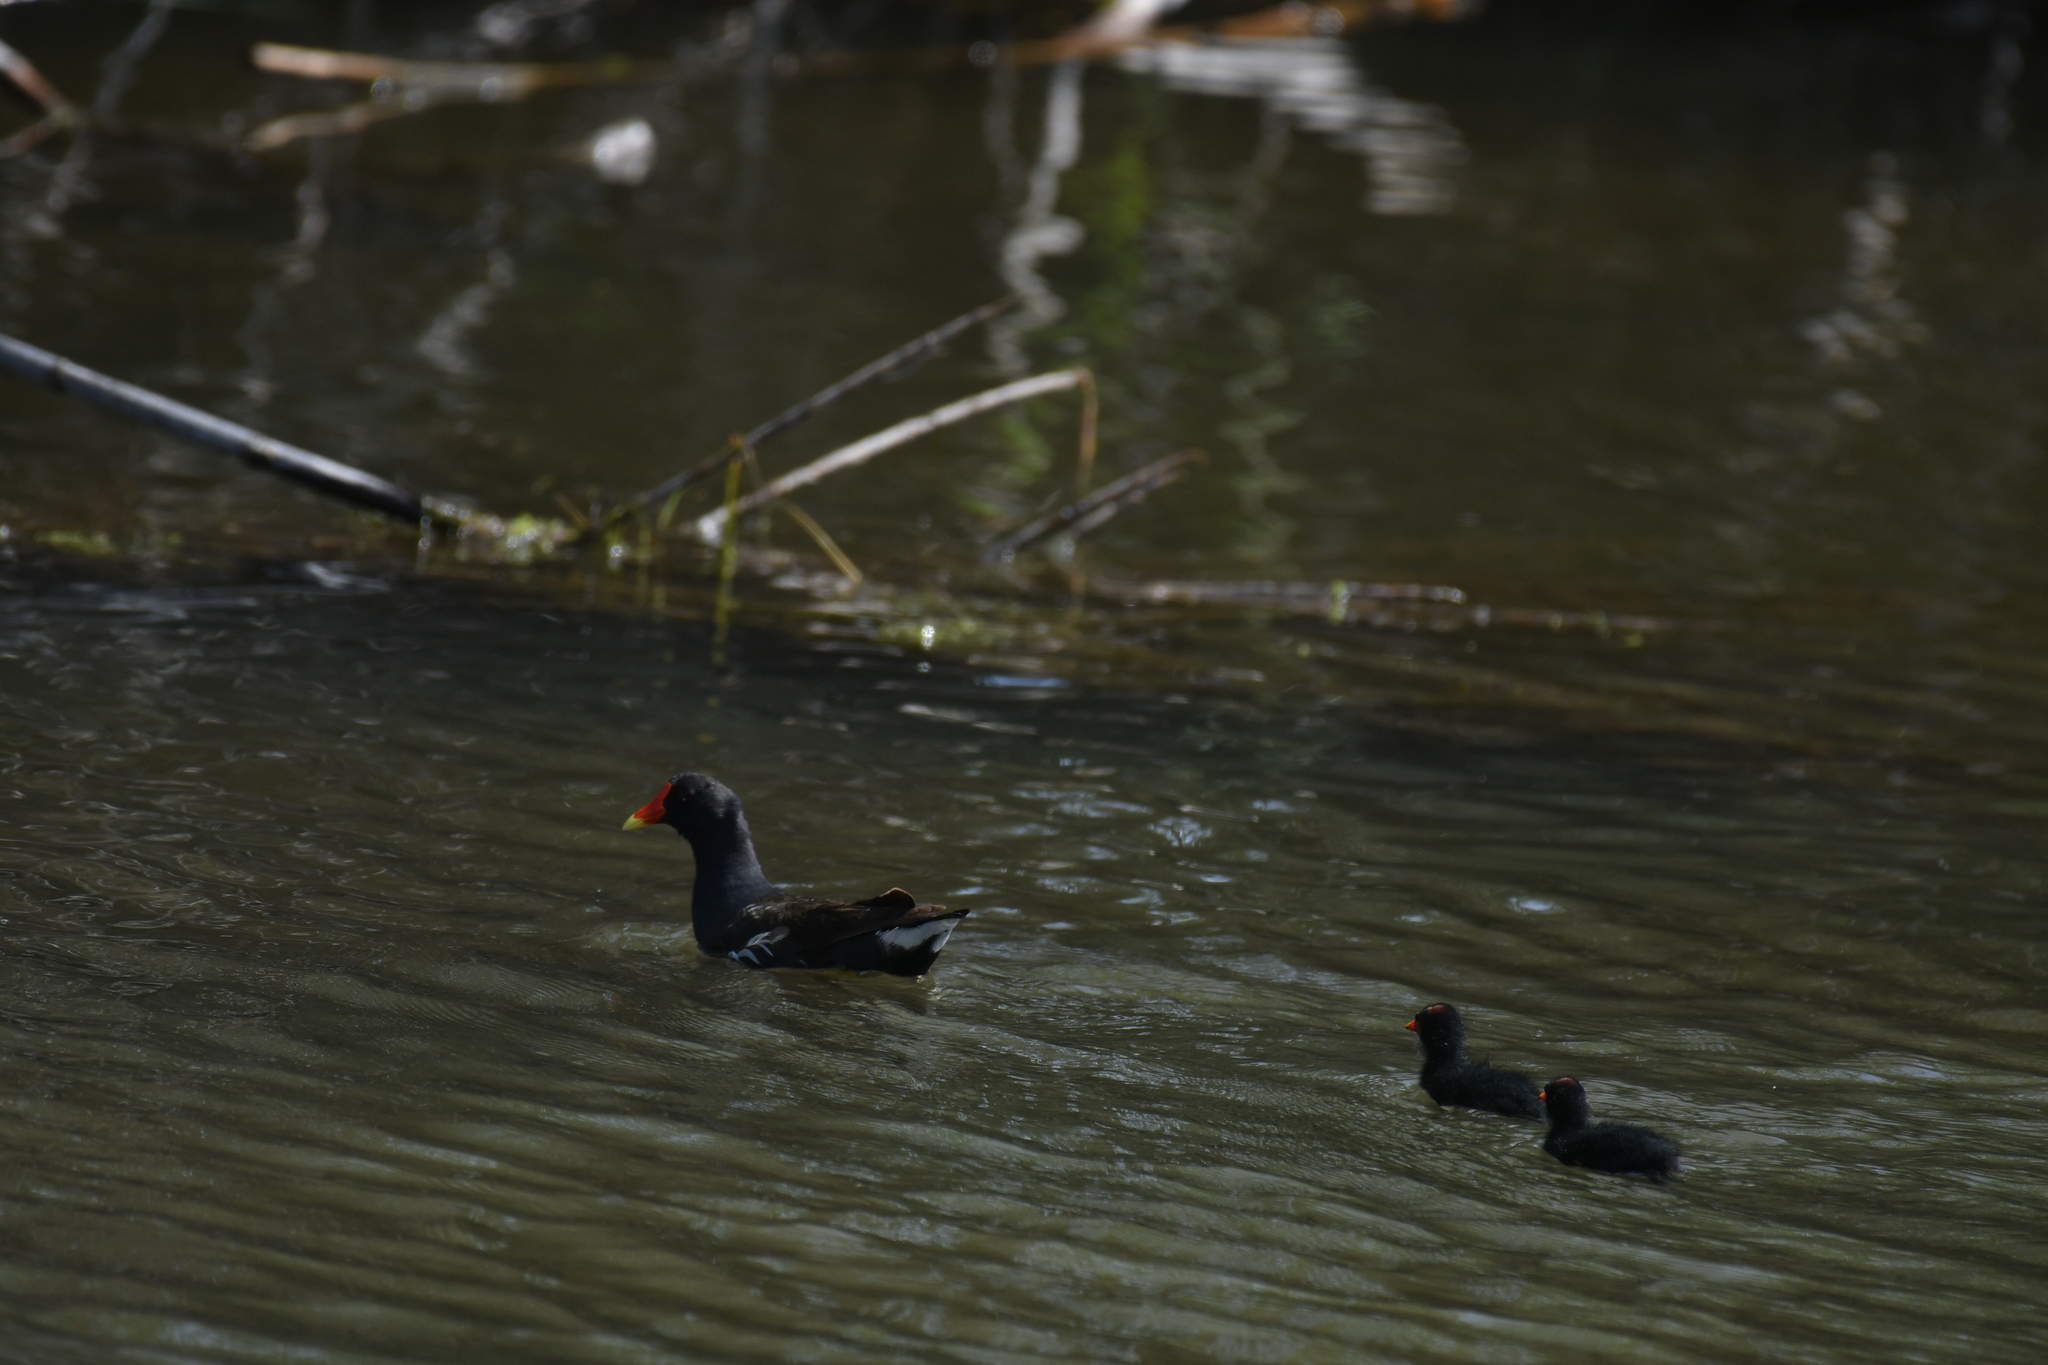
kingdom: Animalia
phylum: Chordata
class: Aves
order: Gruiformes
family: Rallidae
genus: Gallinula
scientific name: Gallinula chloropus
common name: Common moorhen
